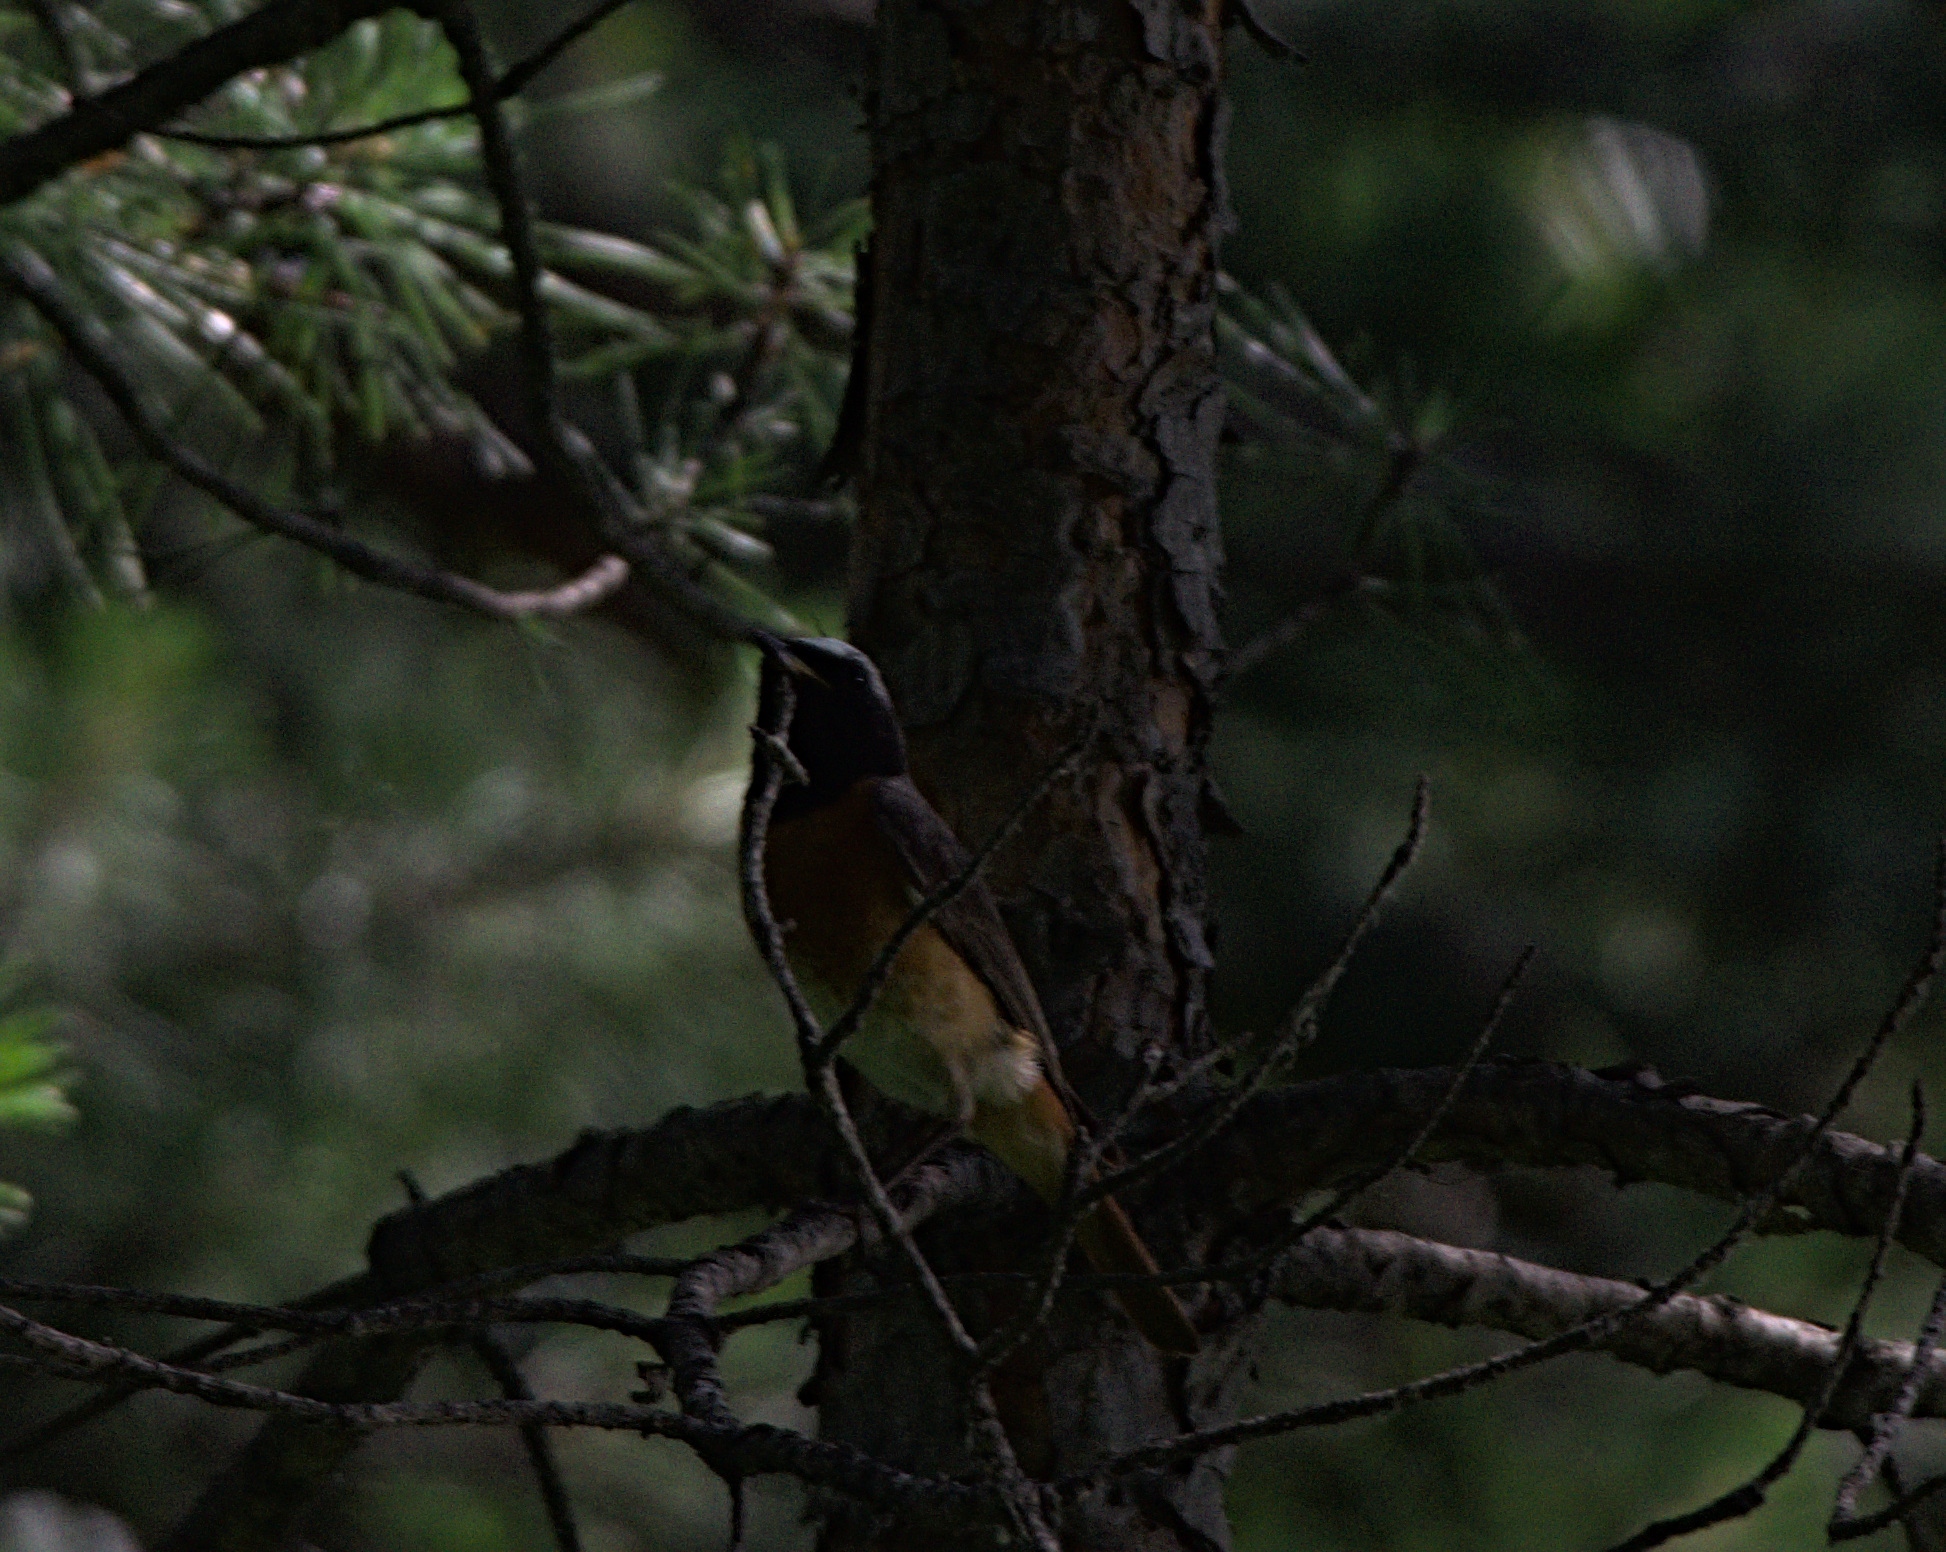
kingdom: Animalia
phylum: Chordata
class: Aves
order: Passeriformes
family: Muscicapidae
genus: Phoenicurus
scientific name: Phoenicurus phoenicurus
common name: Common redstart
